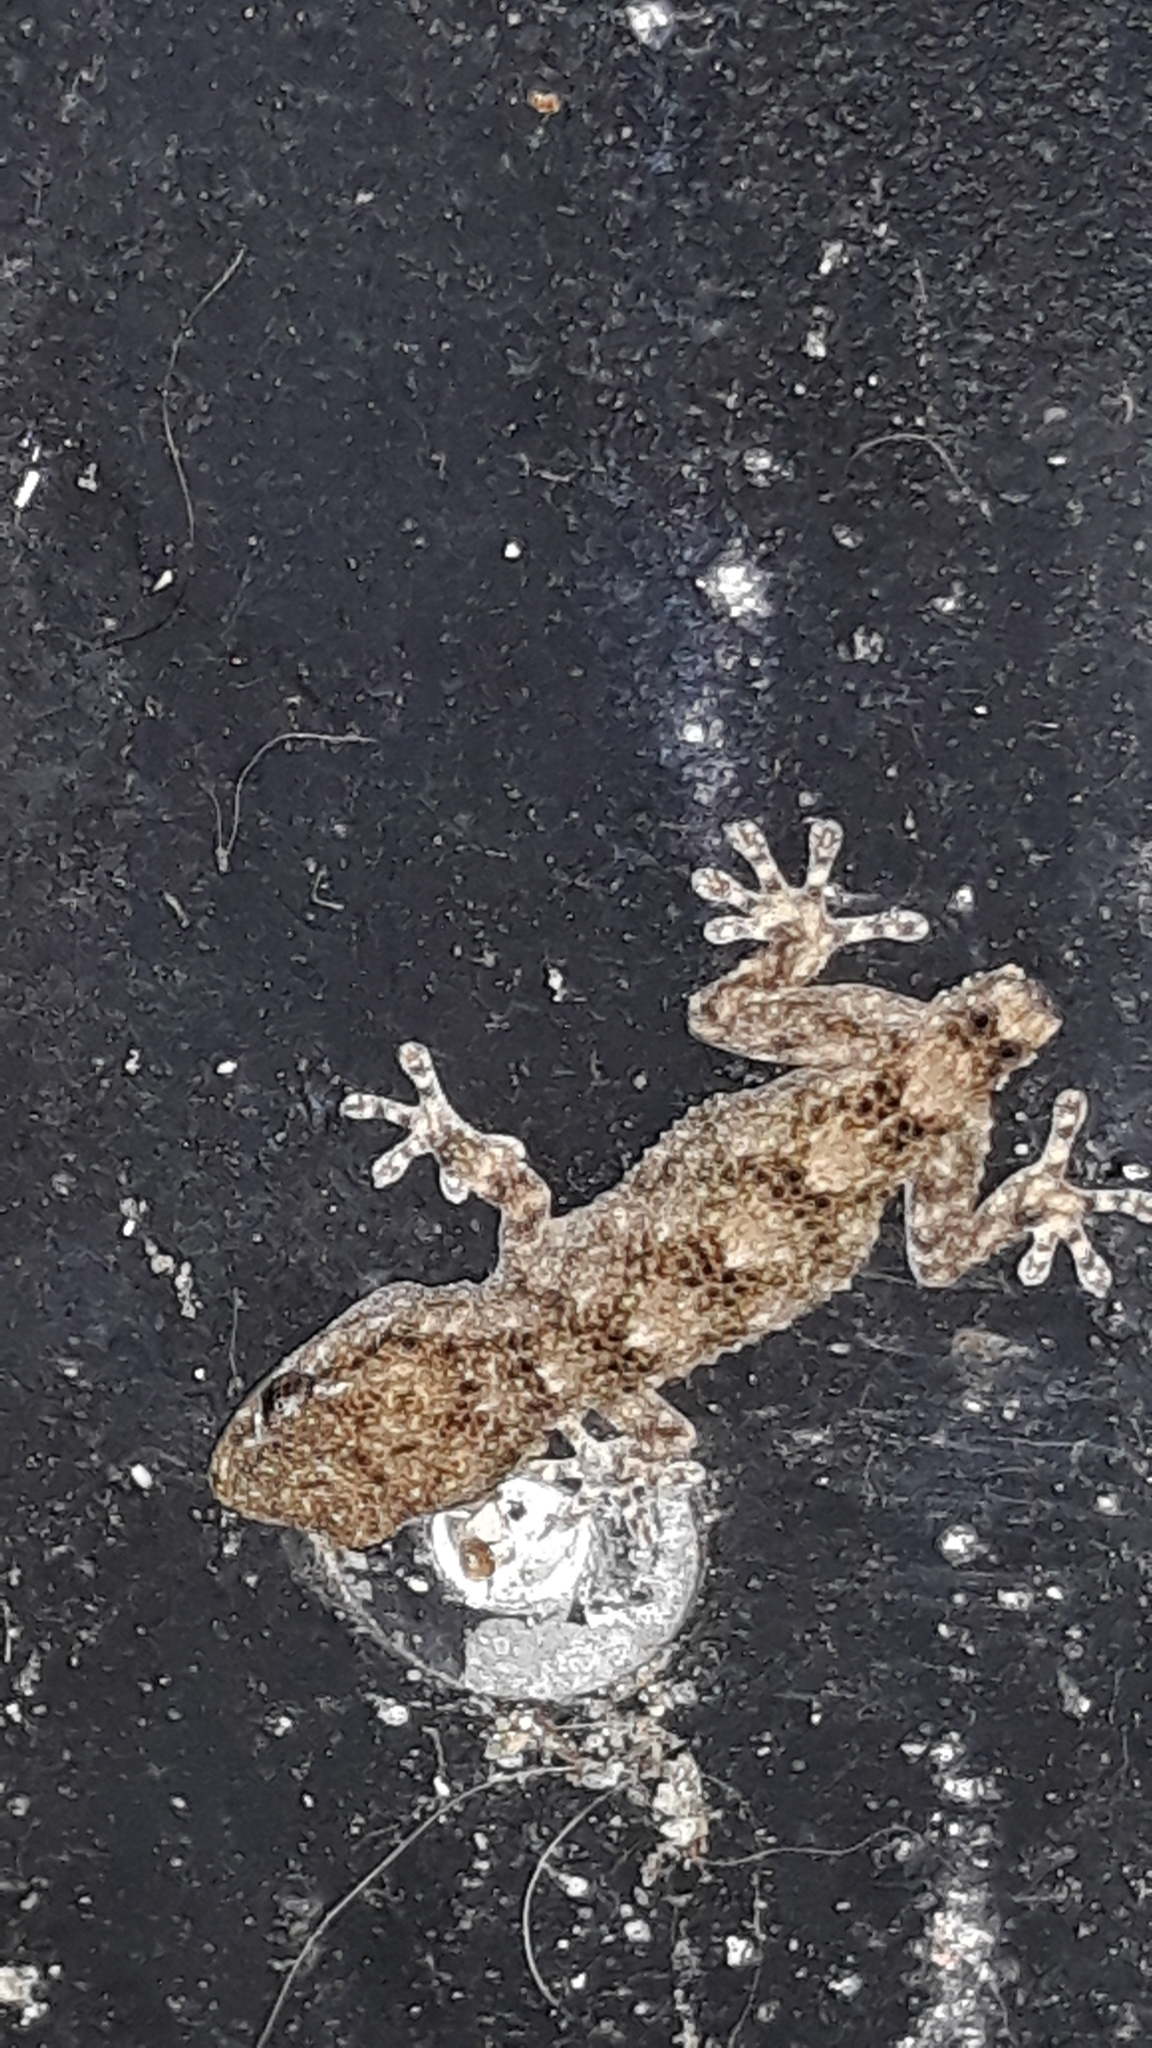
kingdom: Animalia
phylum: Chordata
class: Squamata
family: Phyllodactylidae
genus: Tarentola
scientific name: Tarentola mauritanica
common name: Moorish gecko
